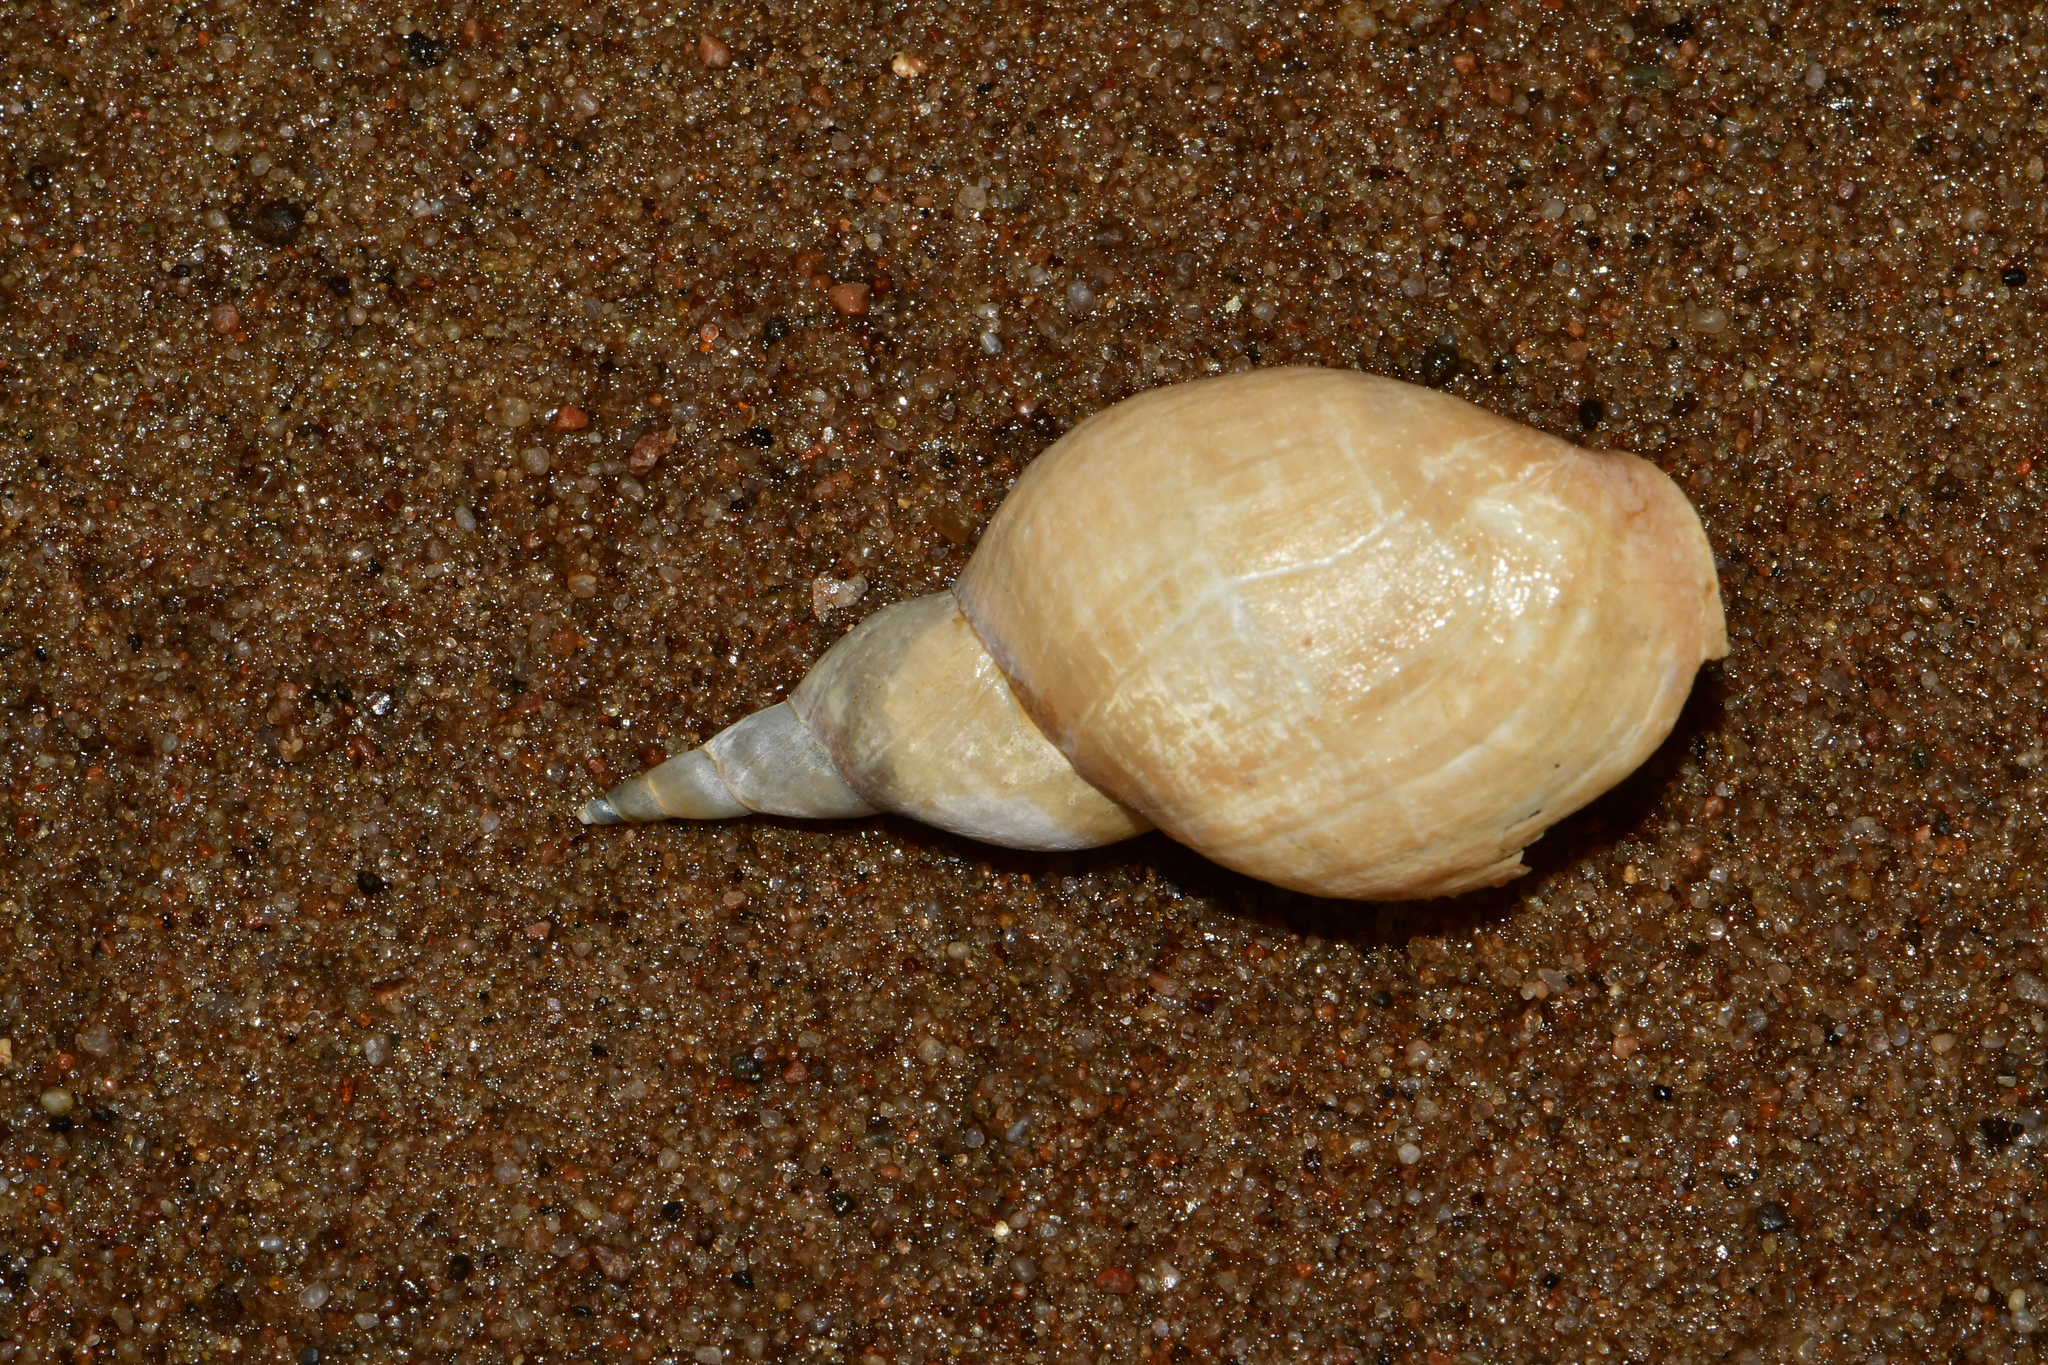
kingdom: Animalia
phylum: Mollusca
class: Gastropoda
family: Lymnaeidae
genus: Lymnaea
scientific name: Lymnaea stagnalis
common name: Great pond snail
